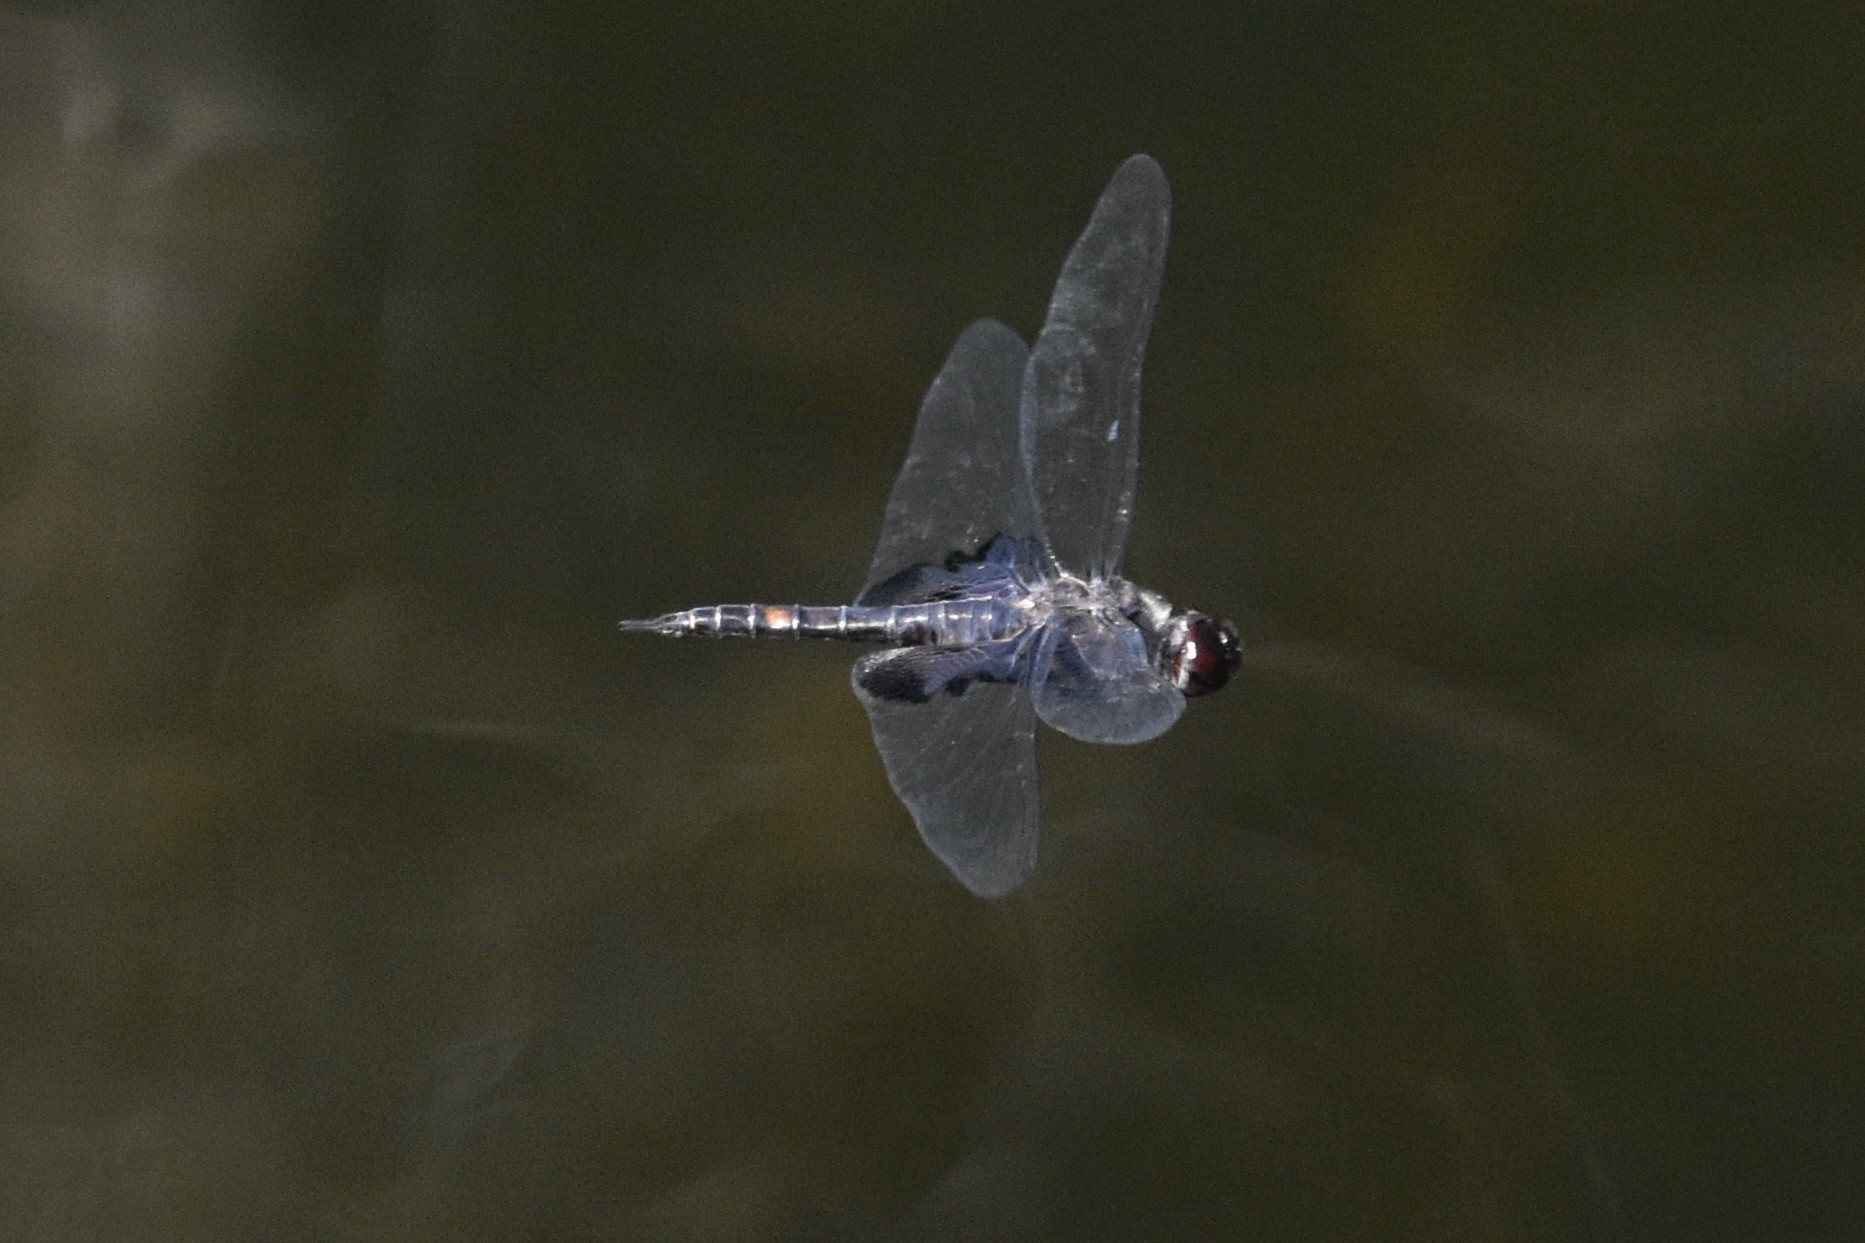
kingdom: Animalia
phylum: Arthropoda
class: Insecta
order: Odonata
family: Libellulidae
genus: Tramea
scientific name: Tramea lacerata
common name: Black saddlebags
